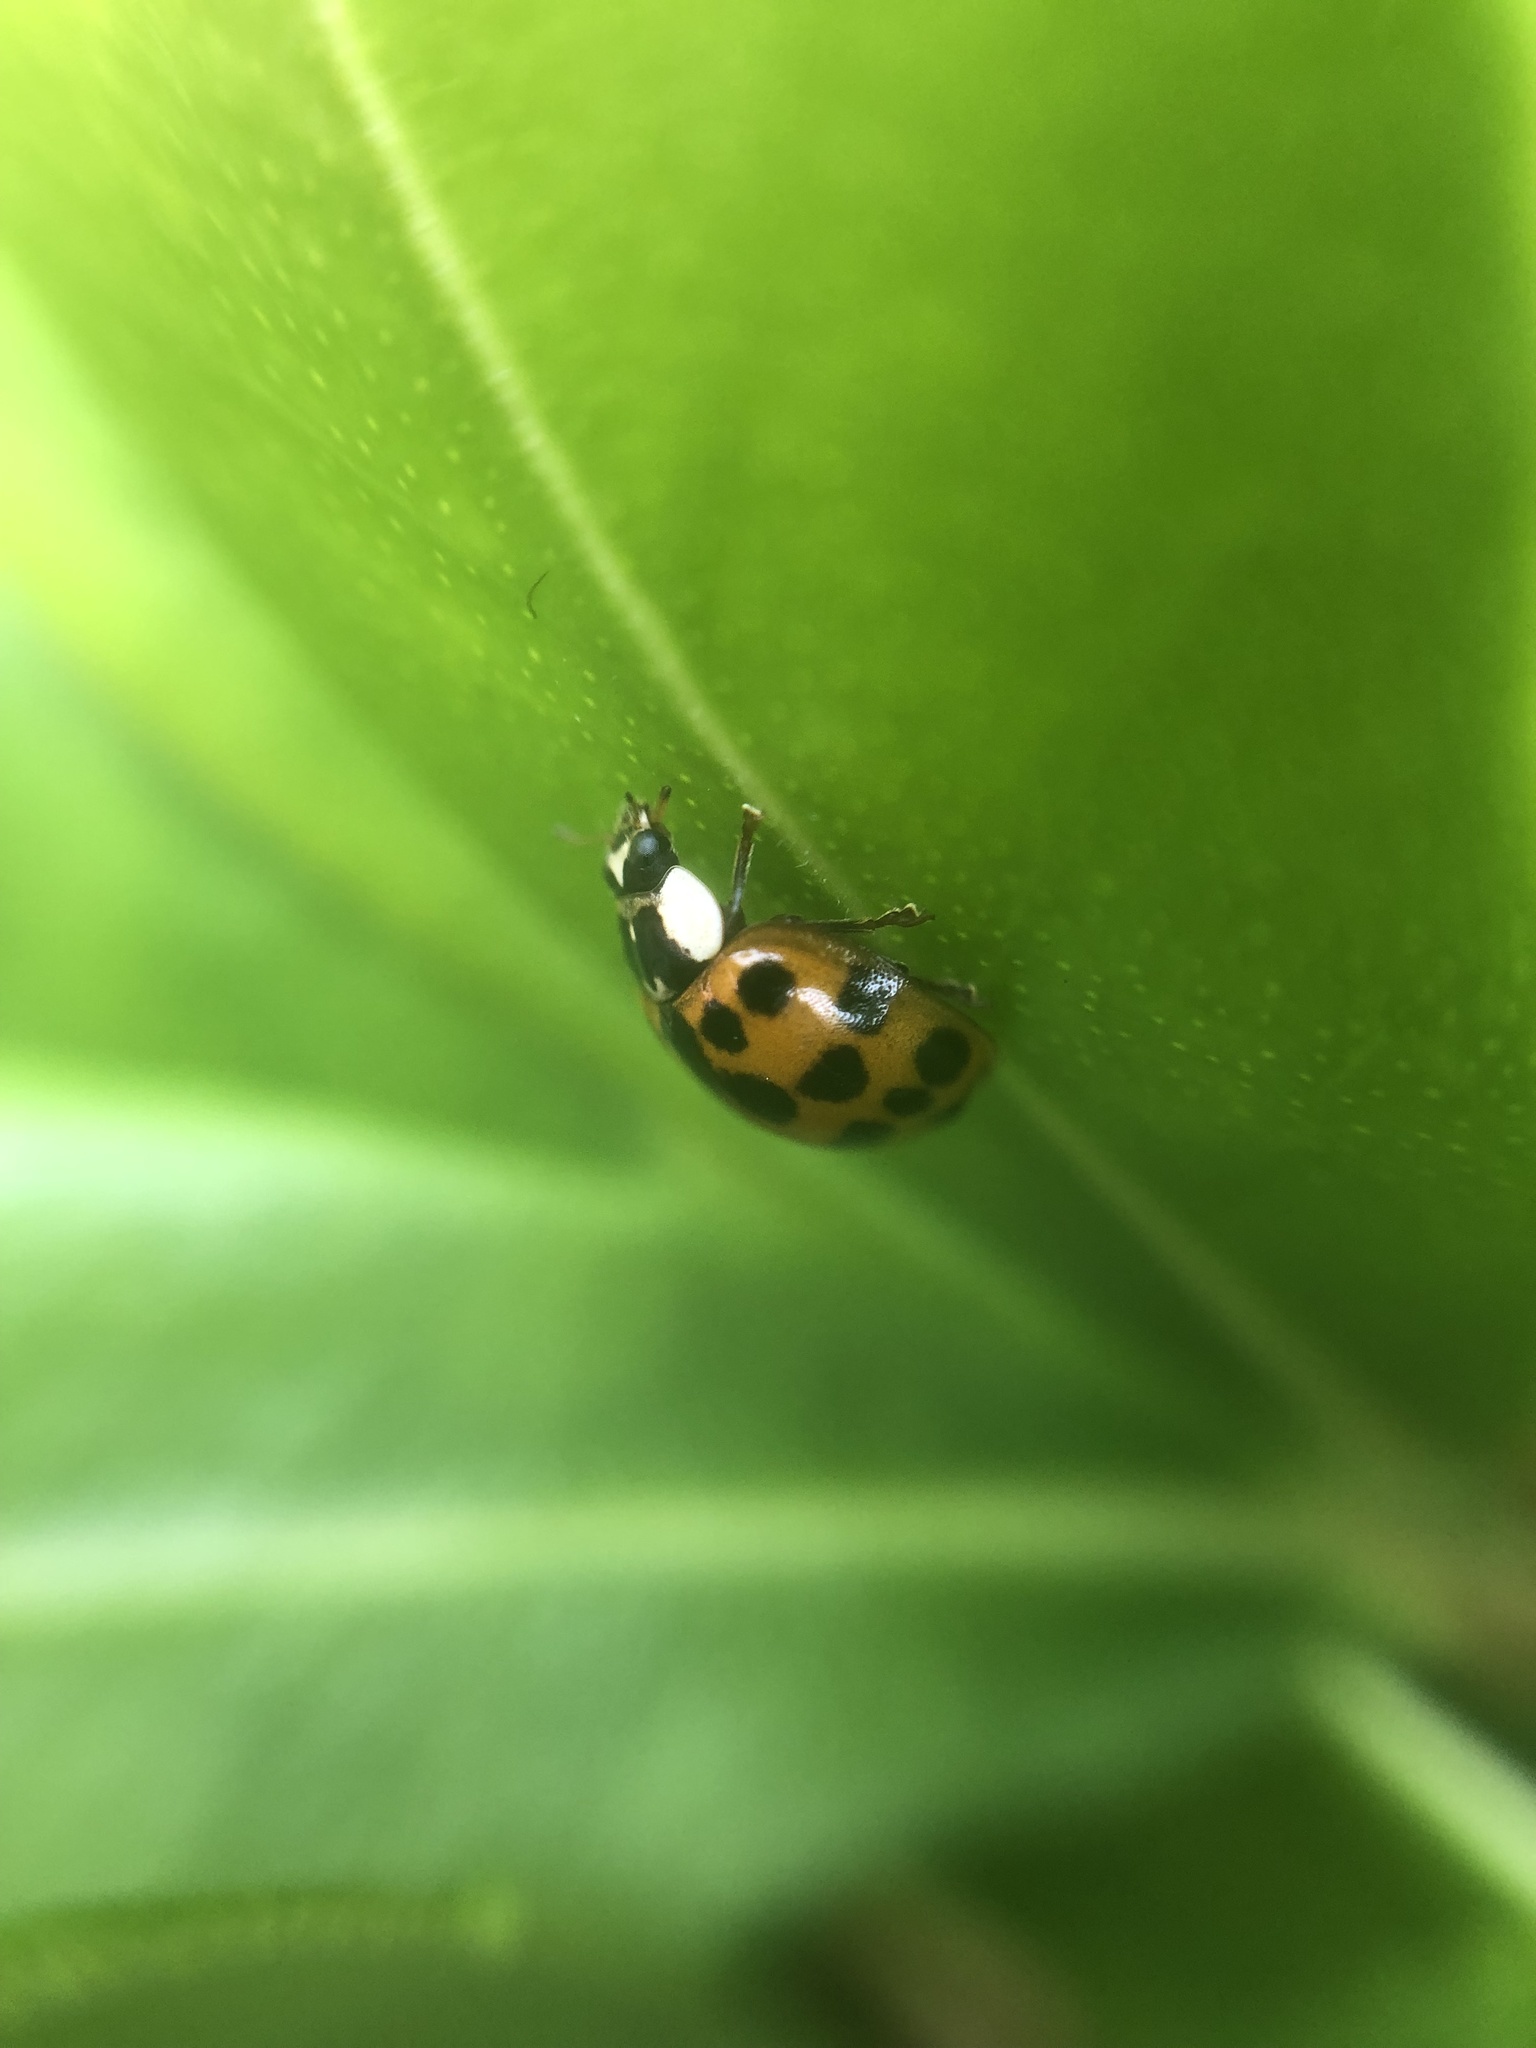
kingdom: Animalia
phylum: Arthropoda
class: Insecta
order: Coleoptera
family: Coccinellidae
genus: Harmonia
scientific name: Harmonia axyridis
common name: Harlequin ladybird
